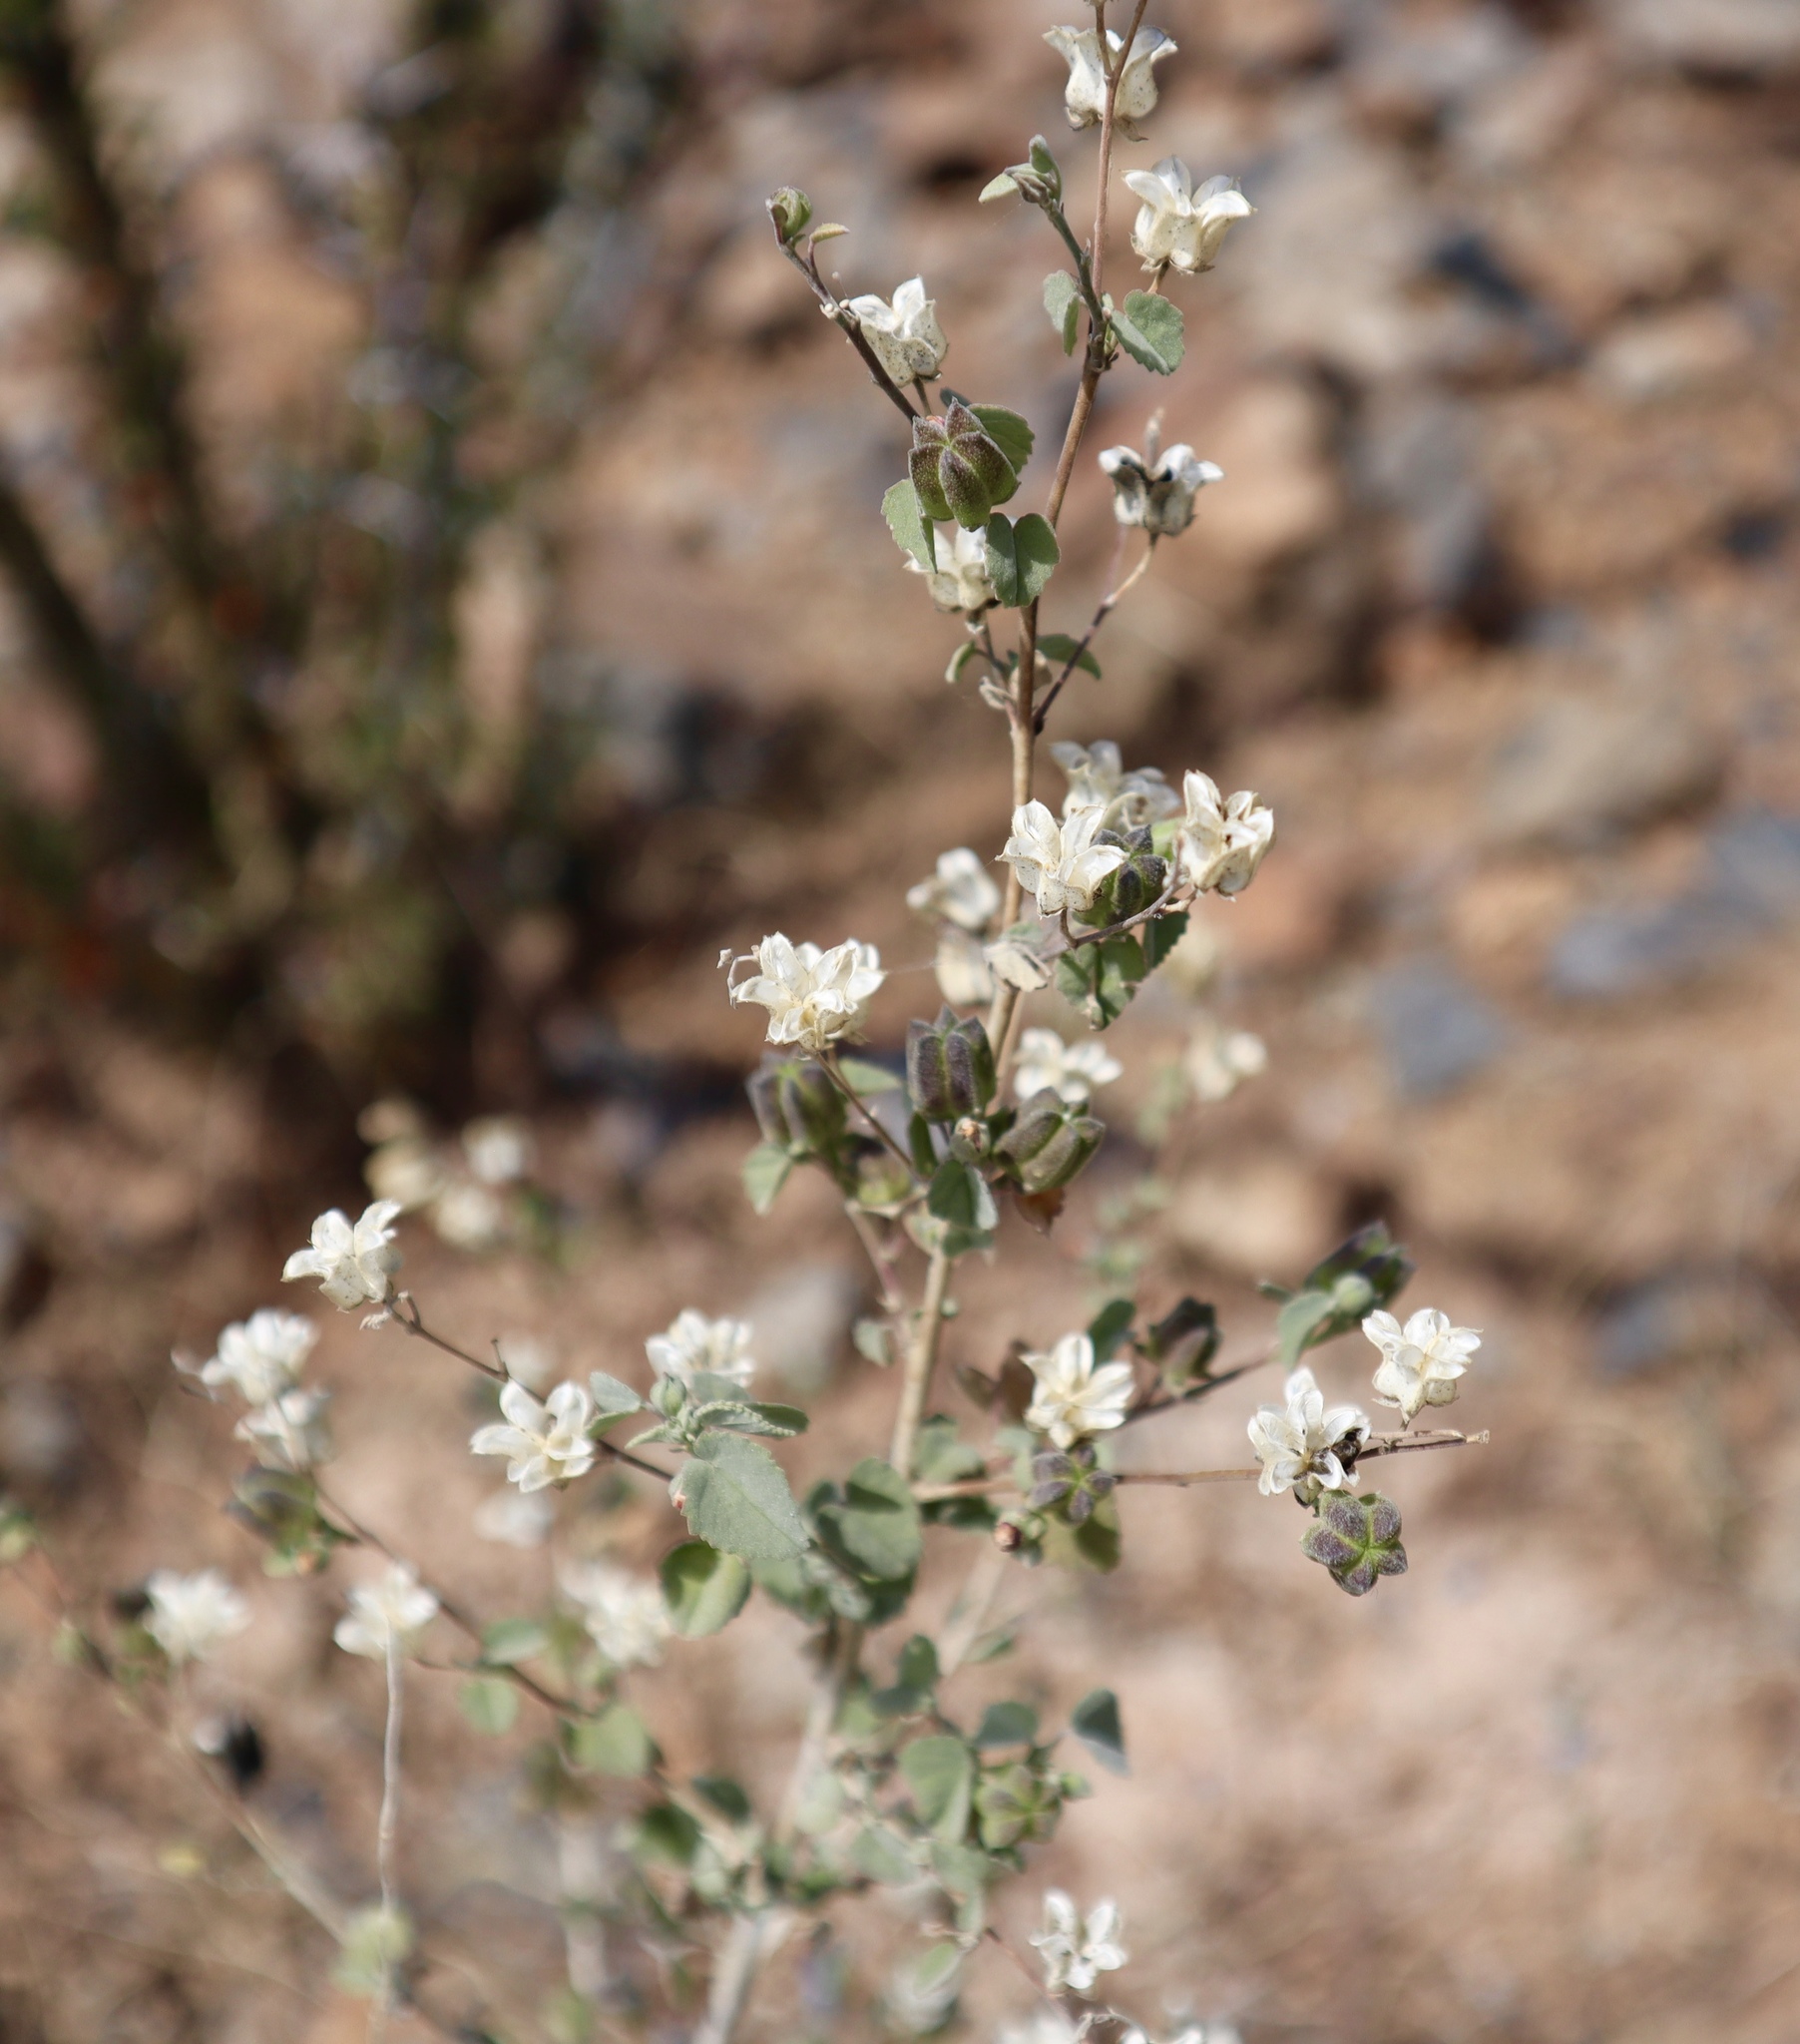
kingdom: Plantae
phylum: Tracheophyta
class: Magnoliopsida
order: Malvales
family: Malvaceae
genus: Abutilon
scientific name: Abutilon incanum
